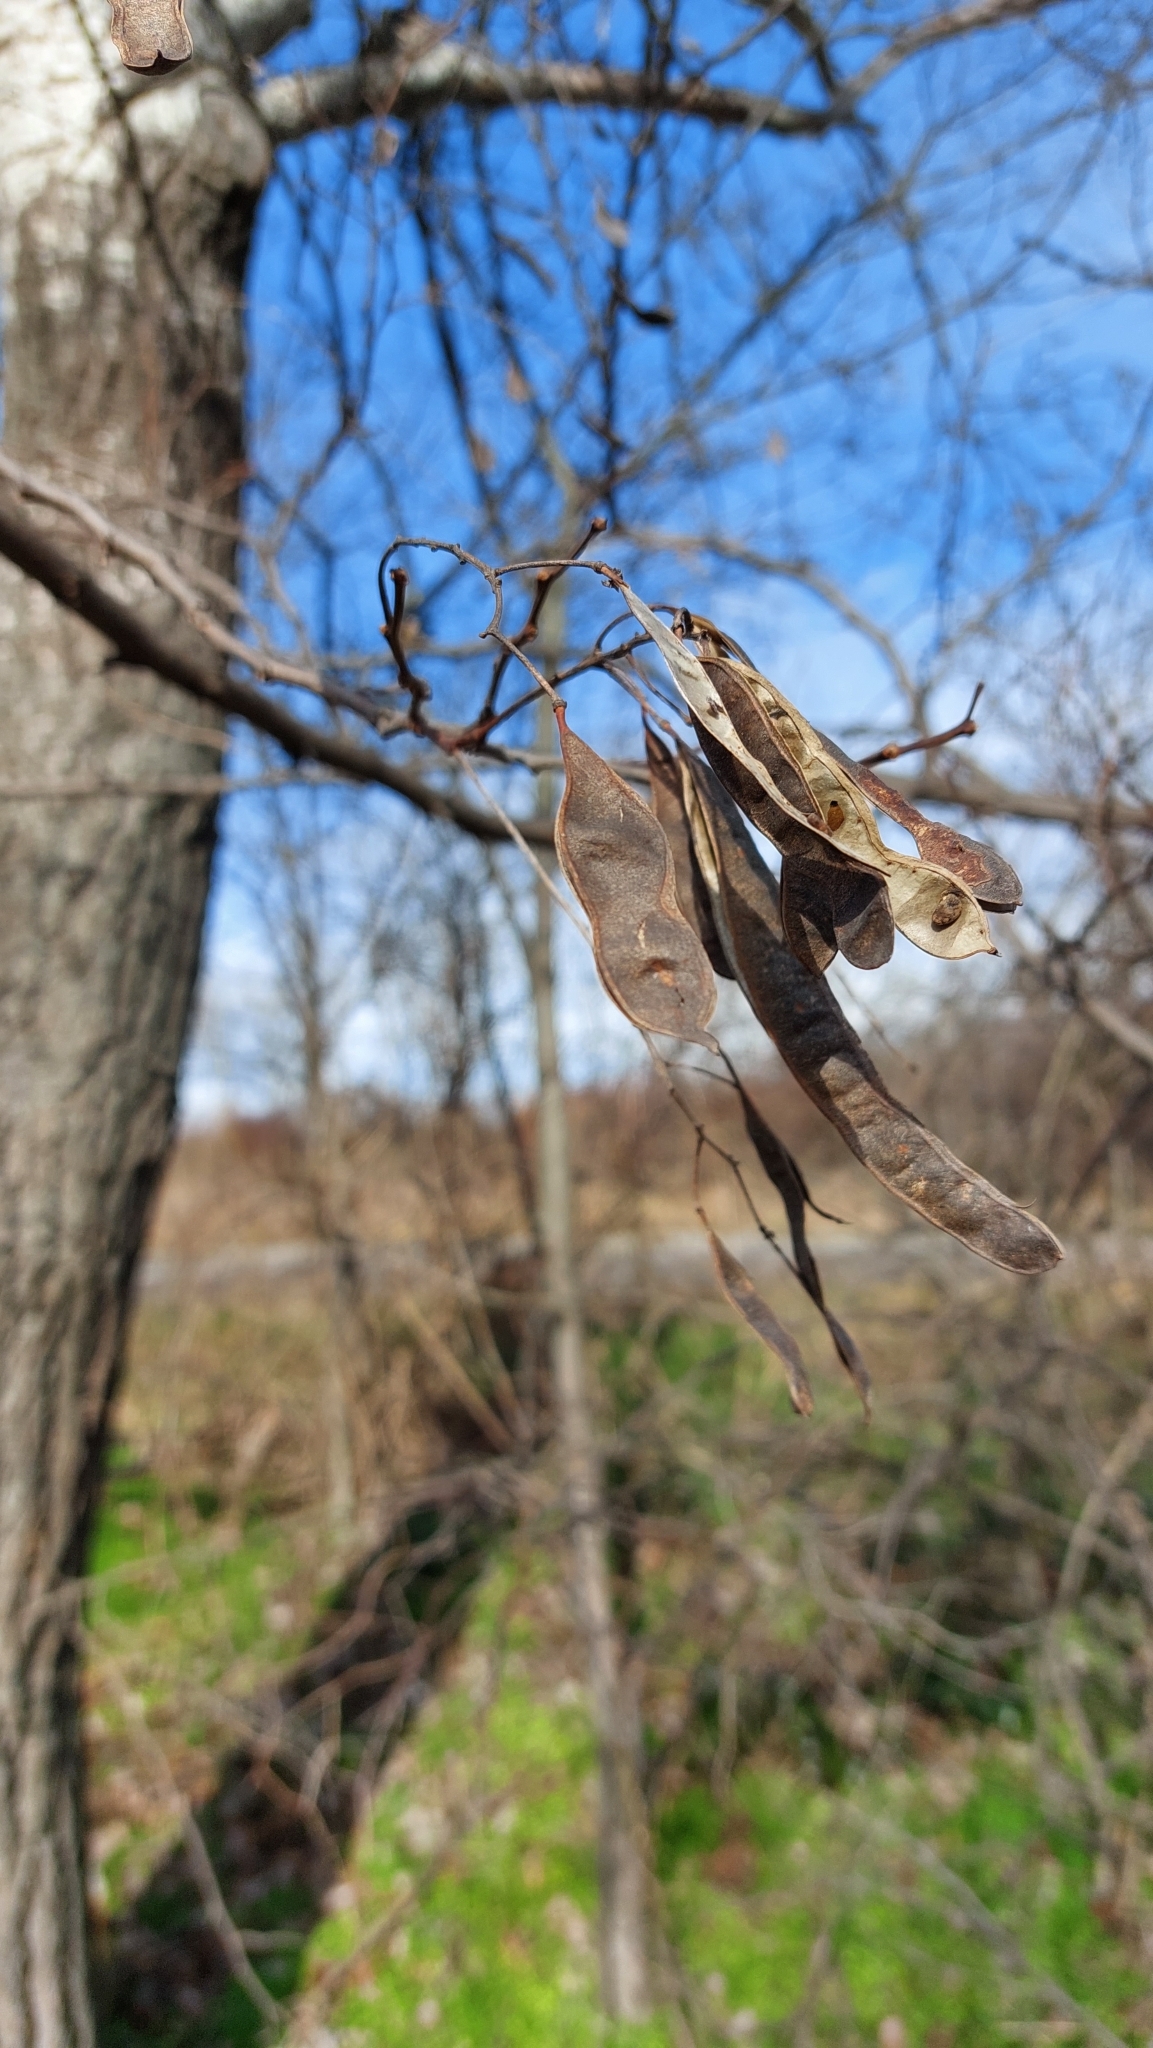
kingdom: Plantae
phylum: Tracheophyta
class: Magnoliopsida
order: Fabales
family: Fabaceae
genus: Robinia
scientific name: Robinia pseudoacacia
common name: Black locust
